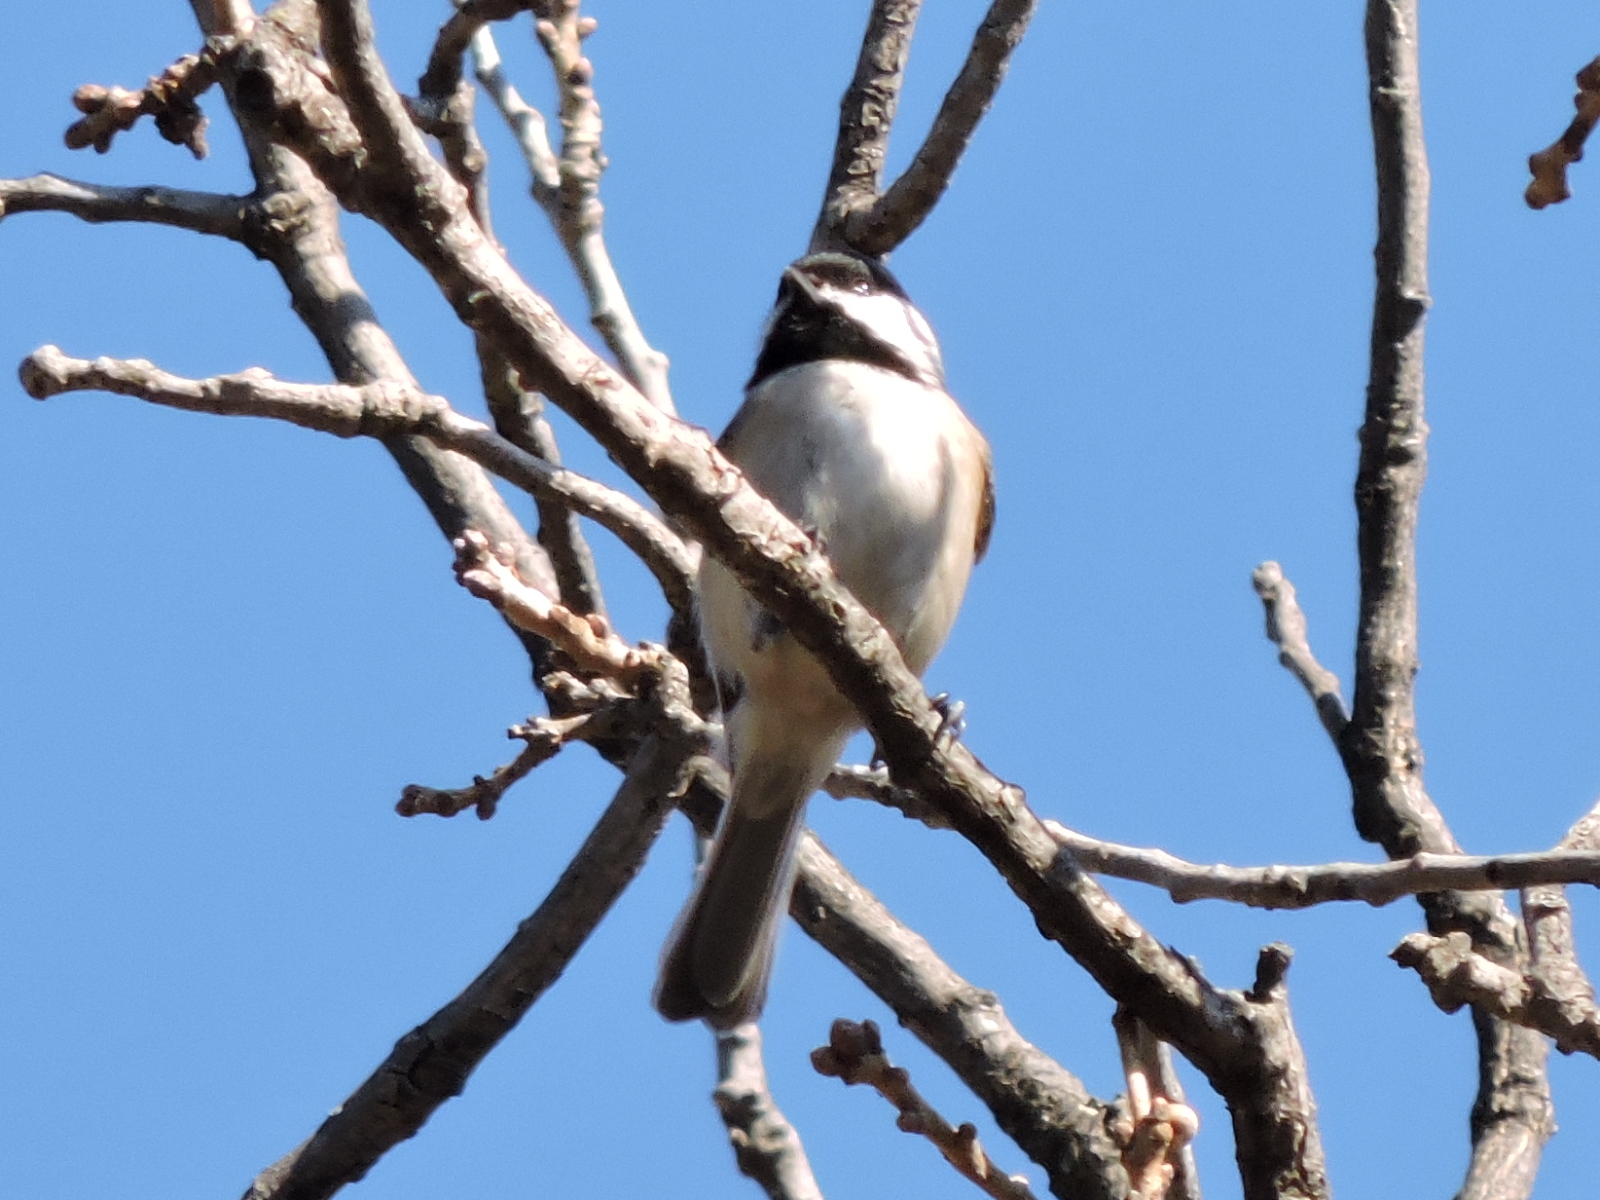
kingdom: Animalia
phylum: Chordata
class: Aves
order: Passeriformes
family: Paridae
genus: Poecile
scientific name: Poecile carolinensis
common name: Carolina chickadee
